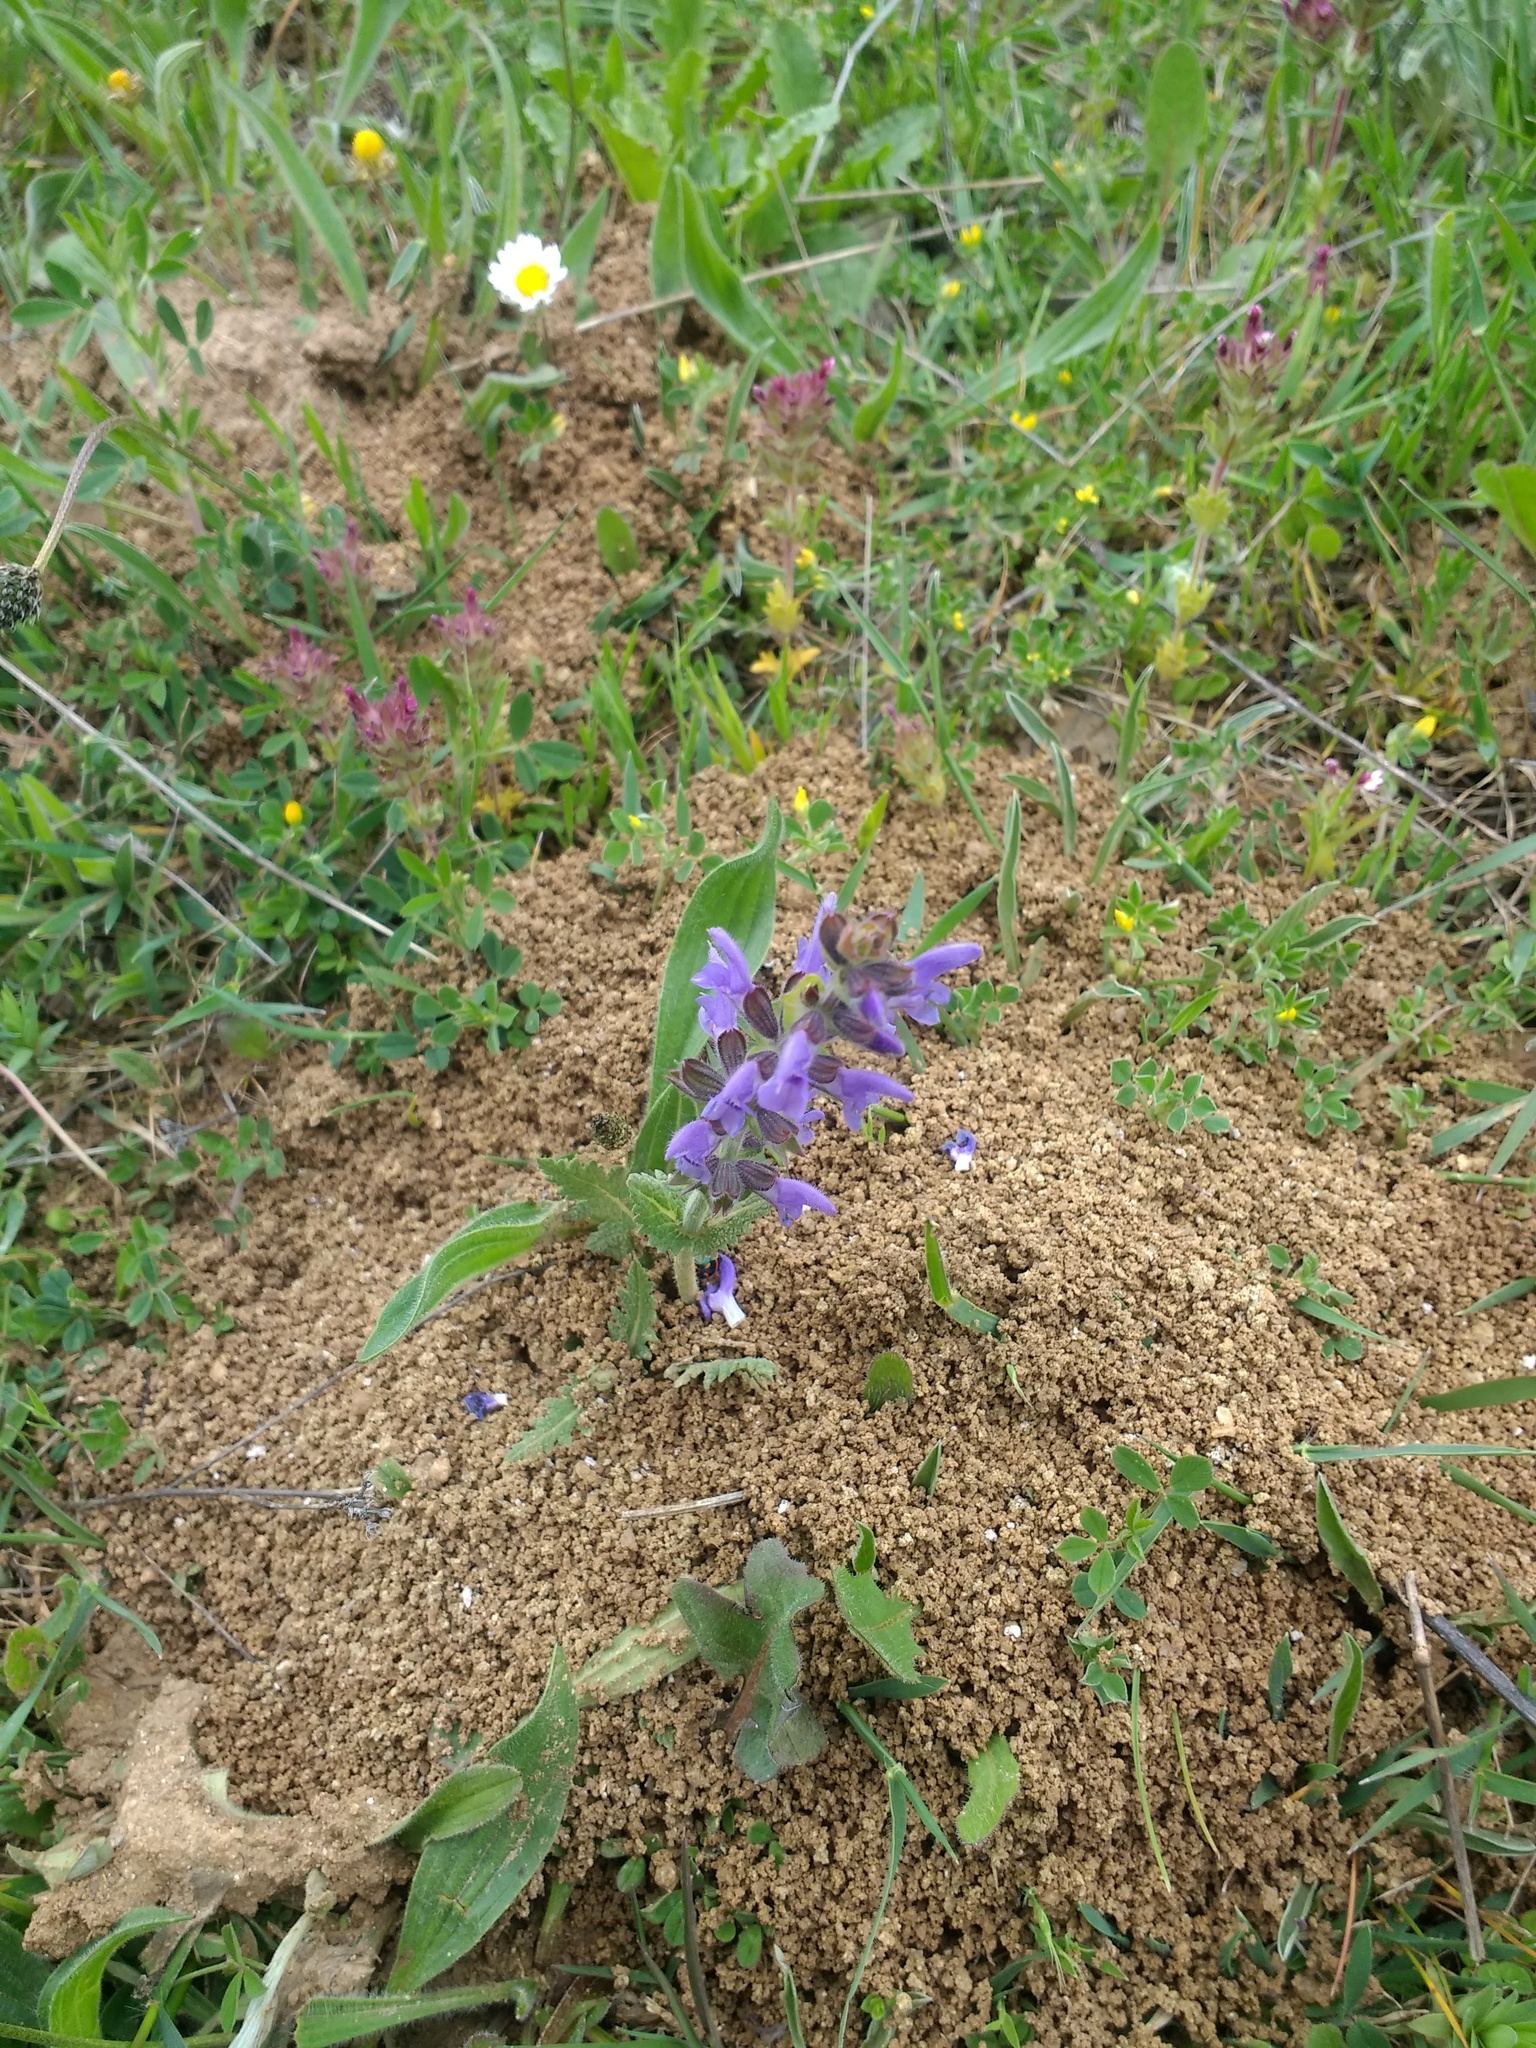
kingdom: Plantae
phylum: Tracheophyta
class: Magnoliopsida
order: Lamiales
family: Lamiaceae
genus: Salvia
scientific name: Salvia verbenaca
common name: Wild clary
